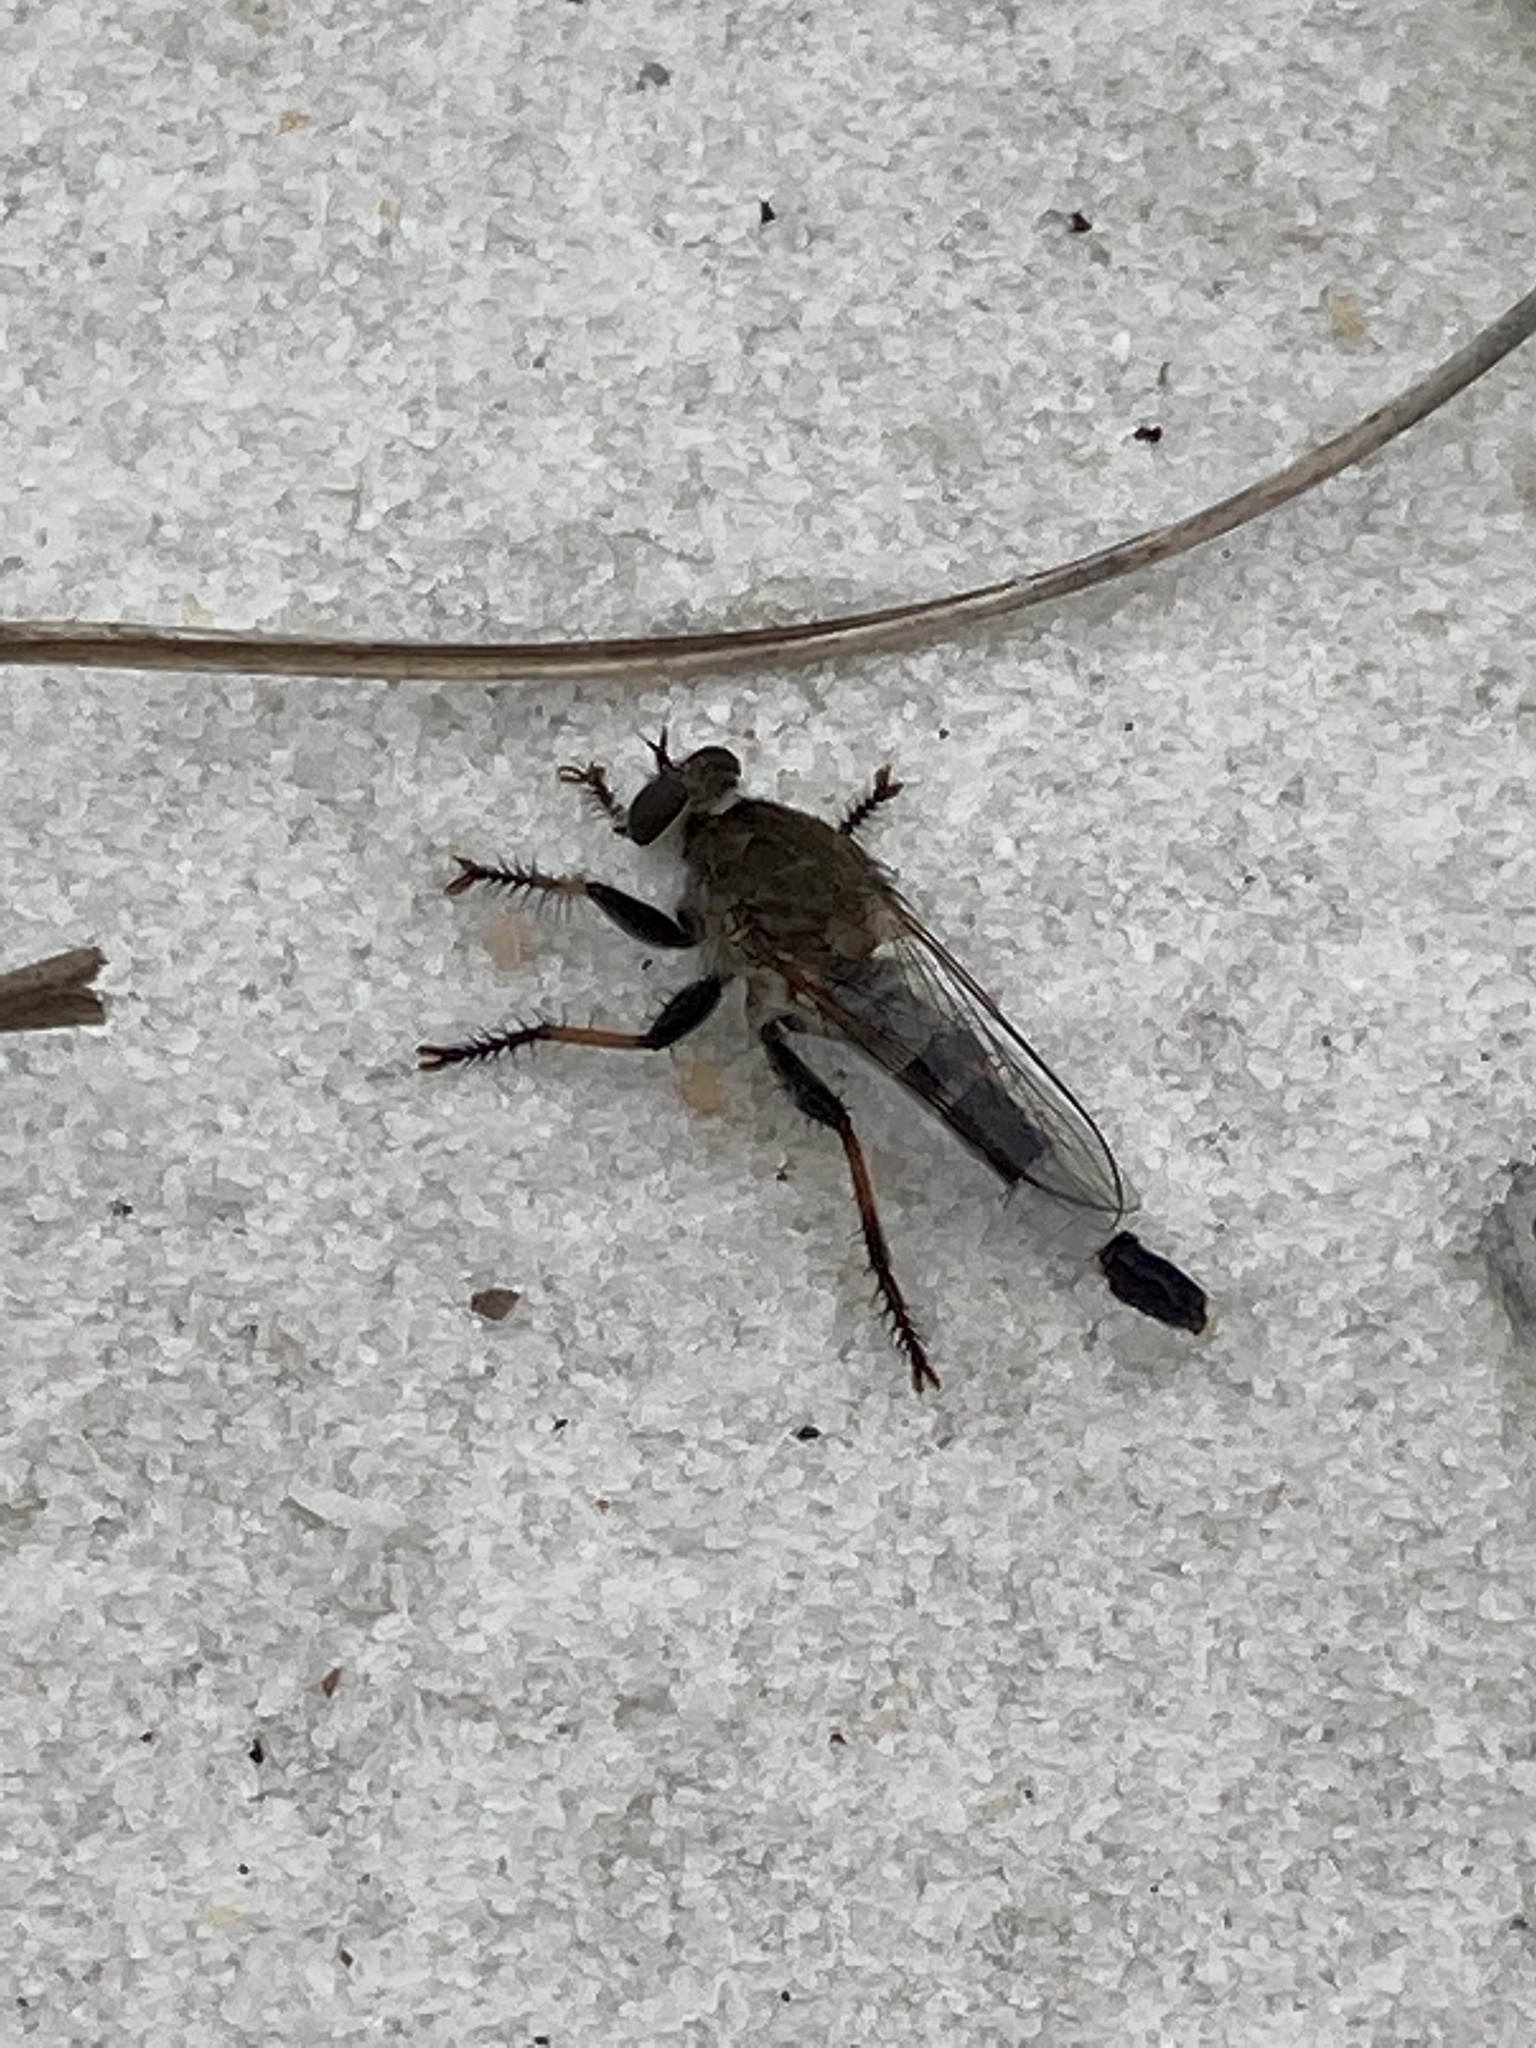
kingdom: Animalia
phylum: Arthropoda
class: Insecta
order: Diptera
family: Asilidae
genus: Efferia
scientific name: Efferia albibarbis
